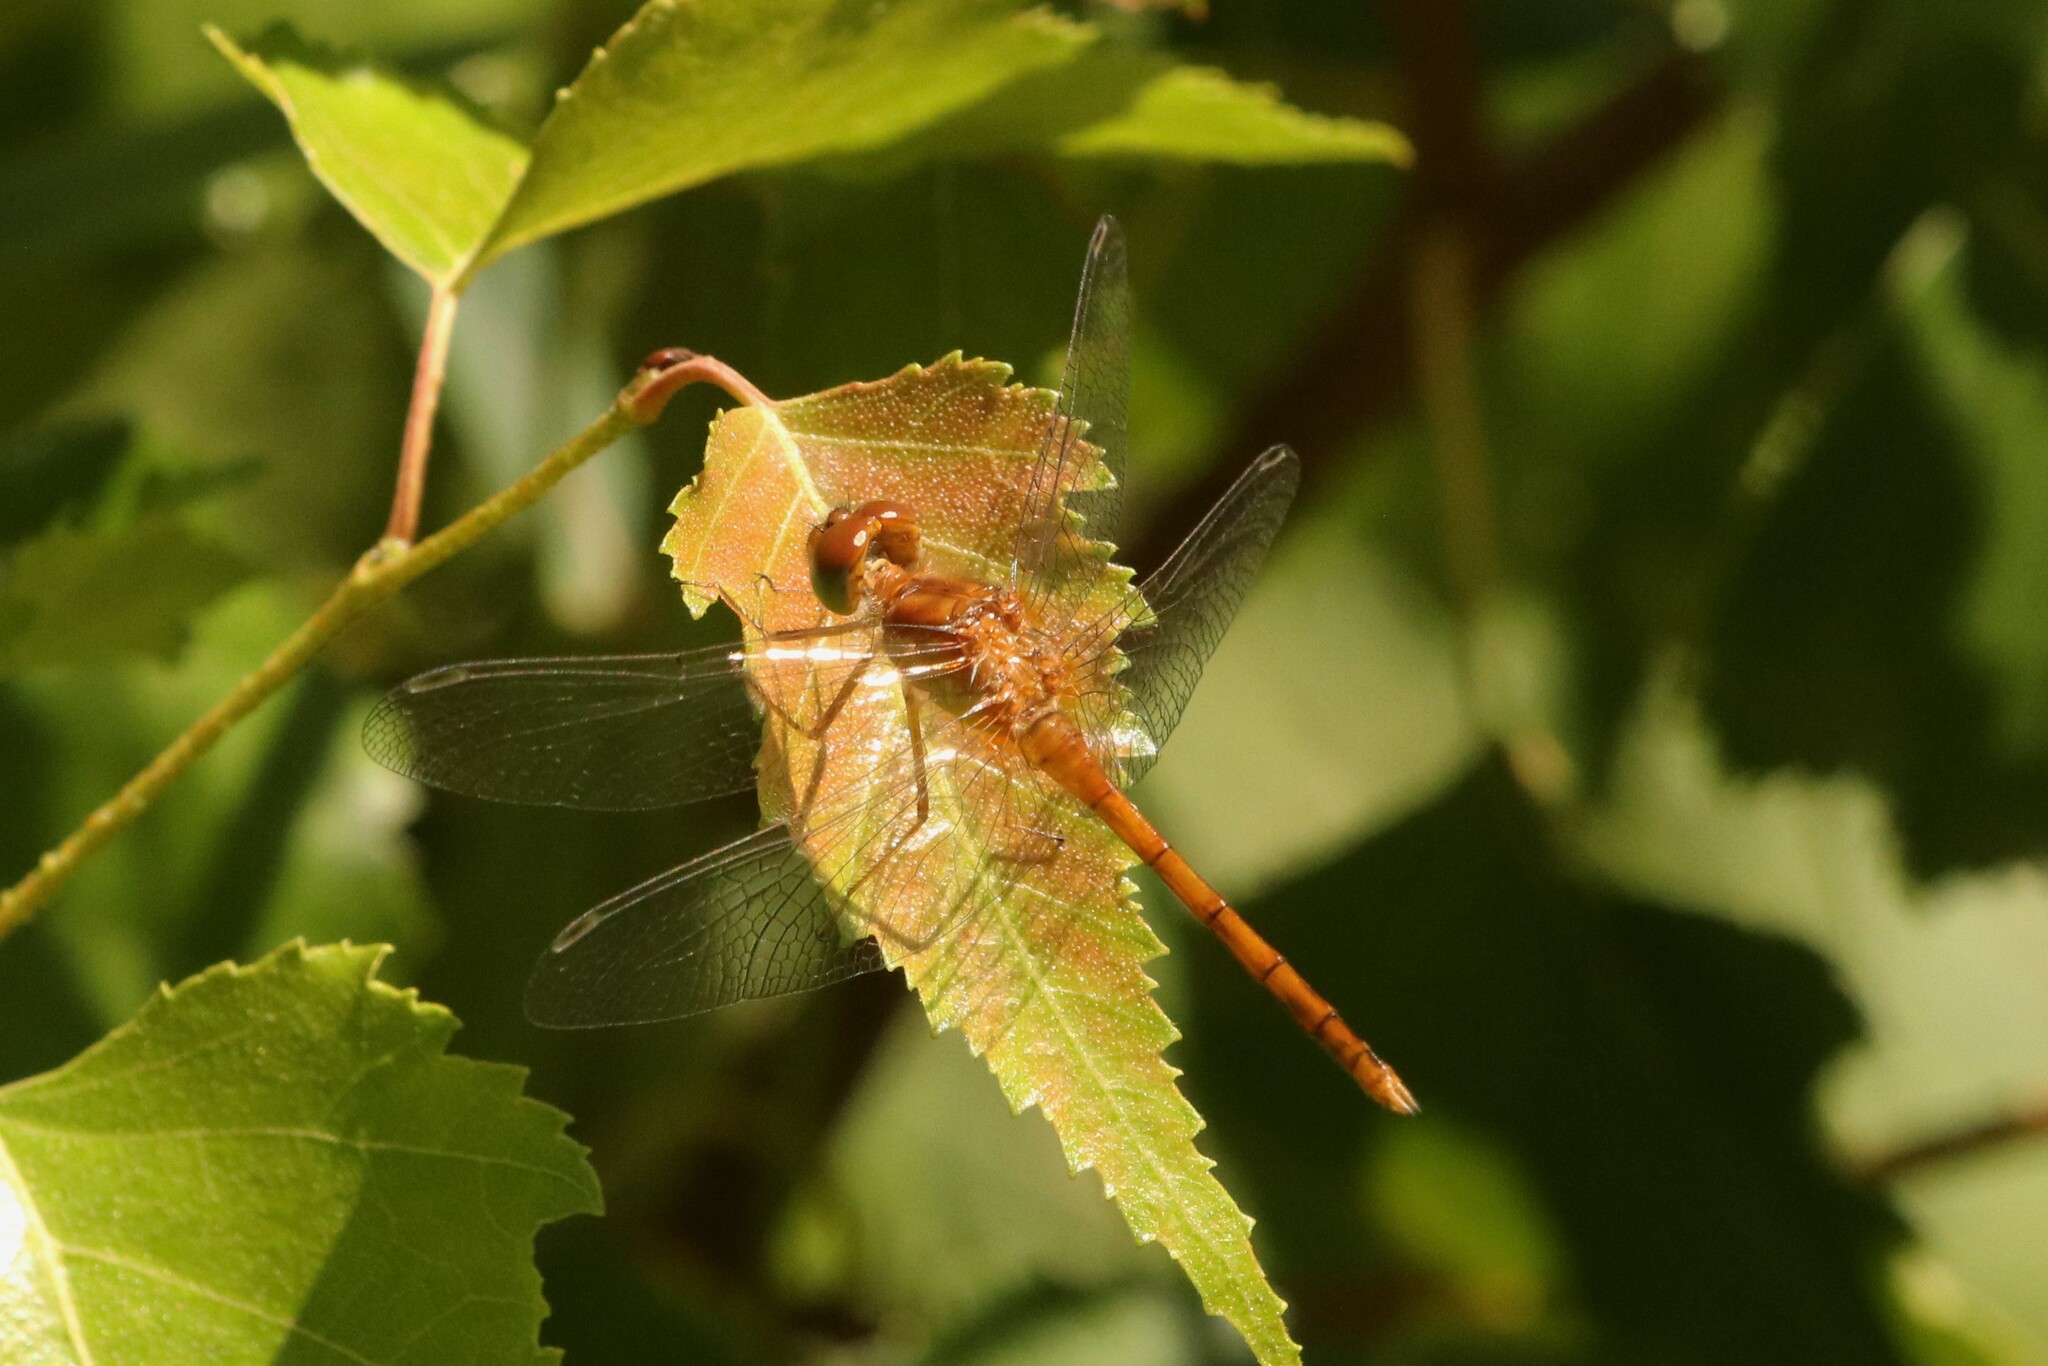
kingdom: Animalia
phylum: Arthropoda
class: Insecta
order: Odonata
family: Libellulidae
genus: Sympetrum
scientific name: Sympetrum vicinum
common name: Autumn meadowhawk
